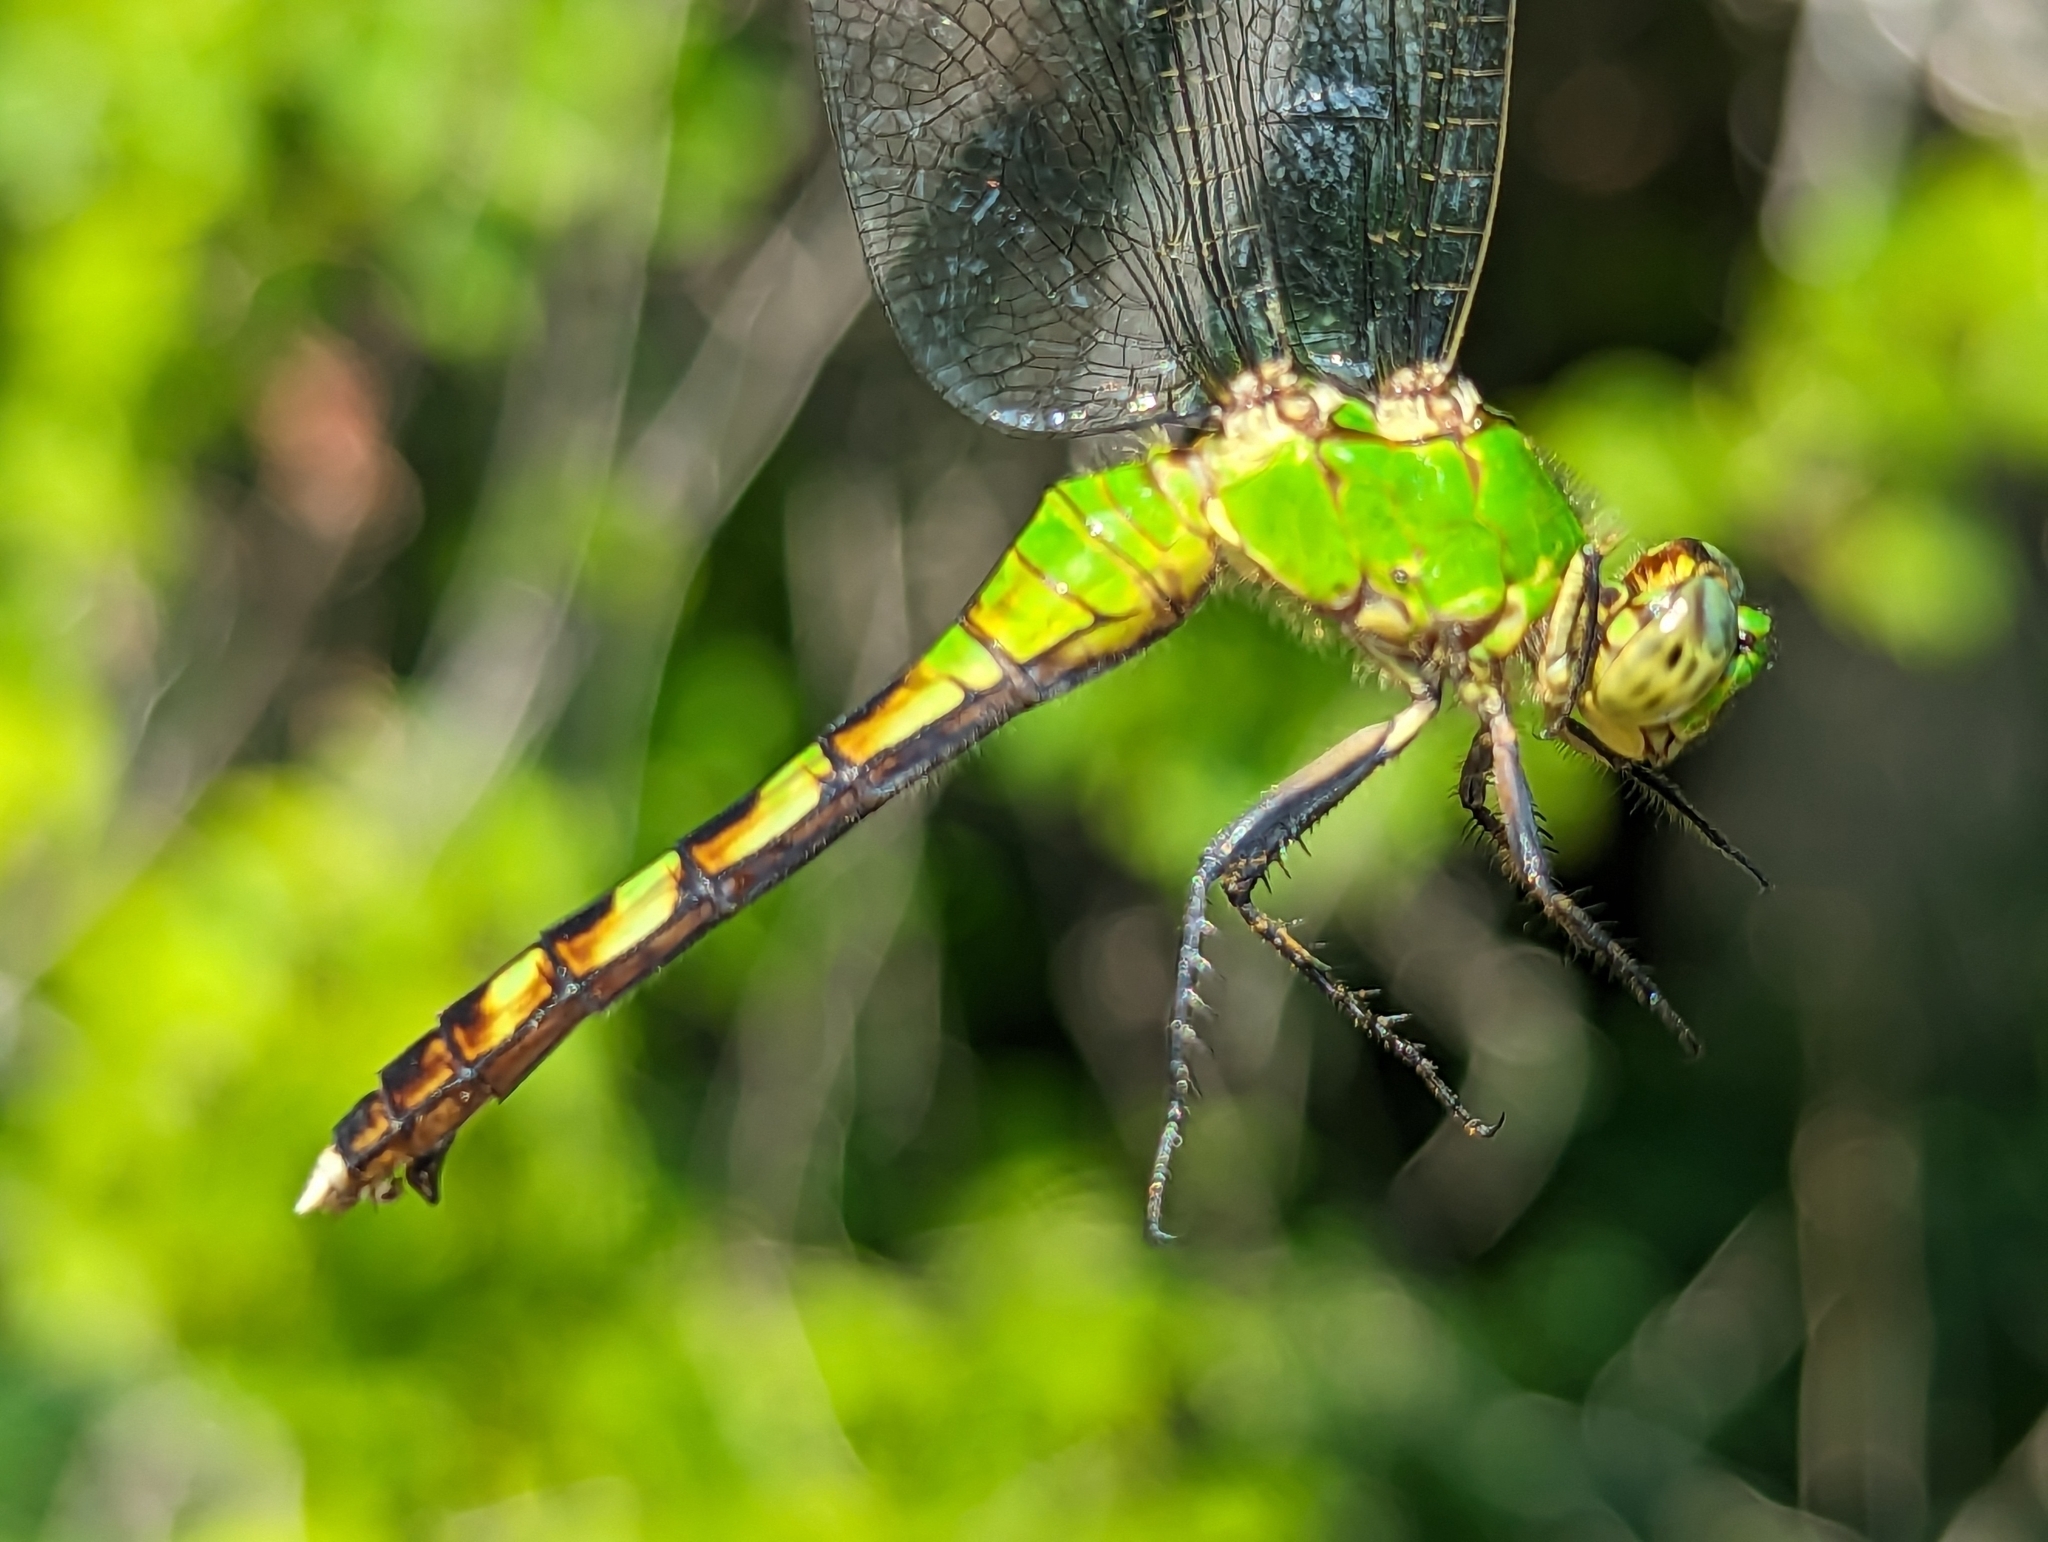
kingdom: Animalia
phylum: Arthropoda
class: Insecta
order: Odonata
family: Libellulidae
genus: Erythemis
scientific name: Erythemis simplicicollis
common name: Eastern pondhawk
